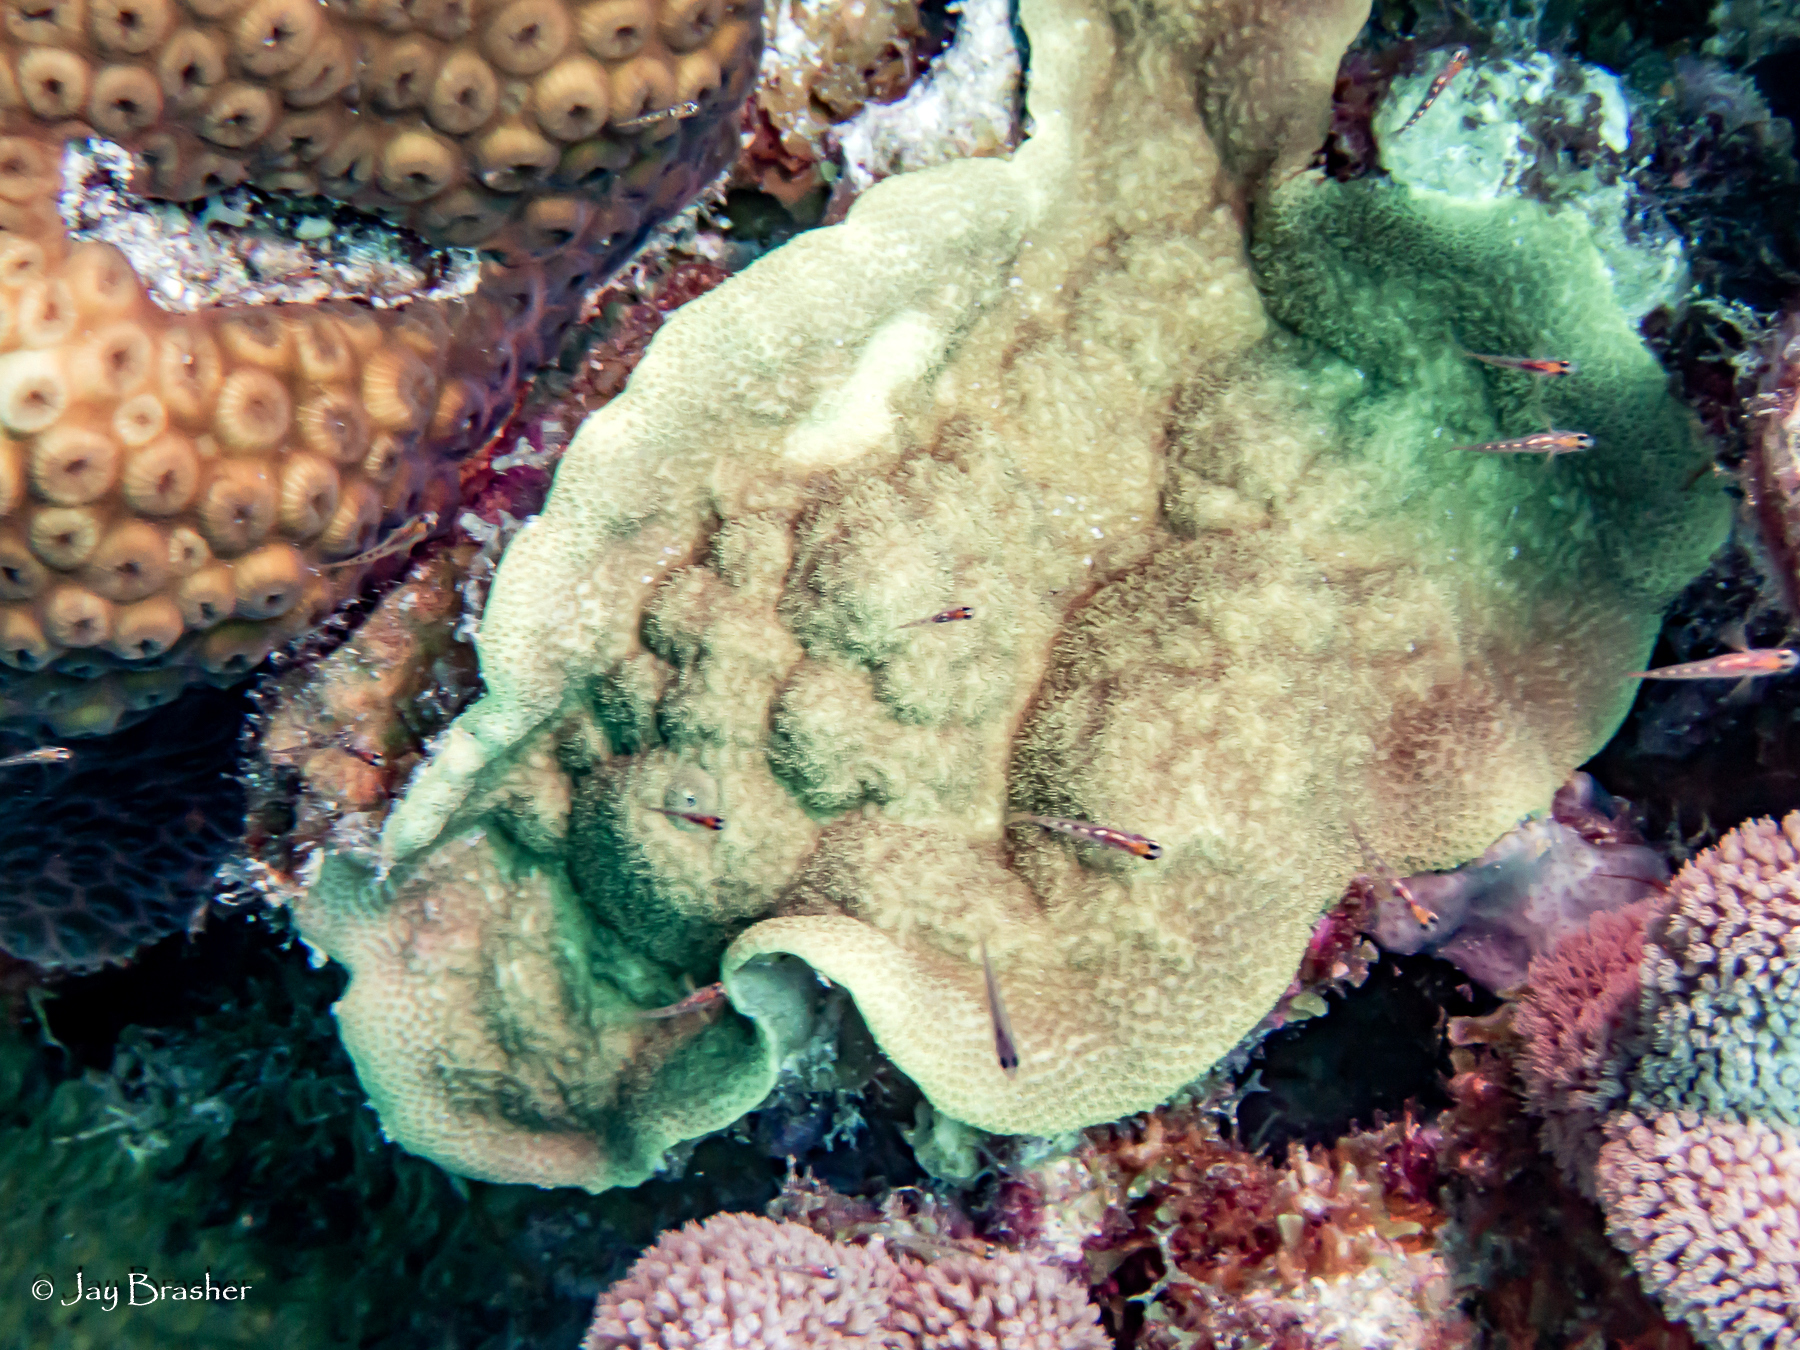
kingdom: Animalia
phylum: Cnidaria
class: Anthozoa
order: Scleractinia
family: Poritidae
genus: Porites
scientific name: Porites astreoides
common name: Mustard hill coral
